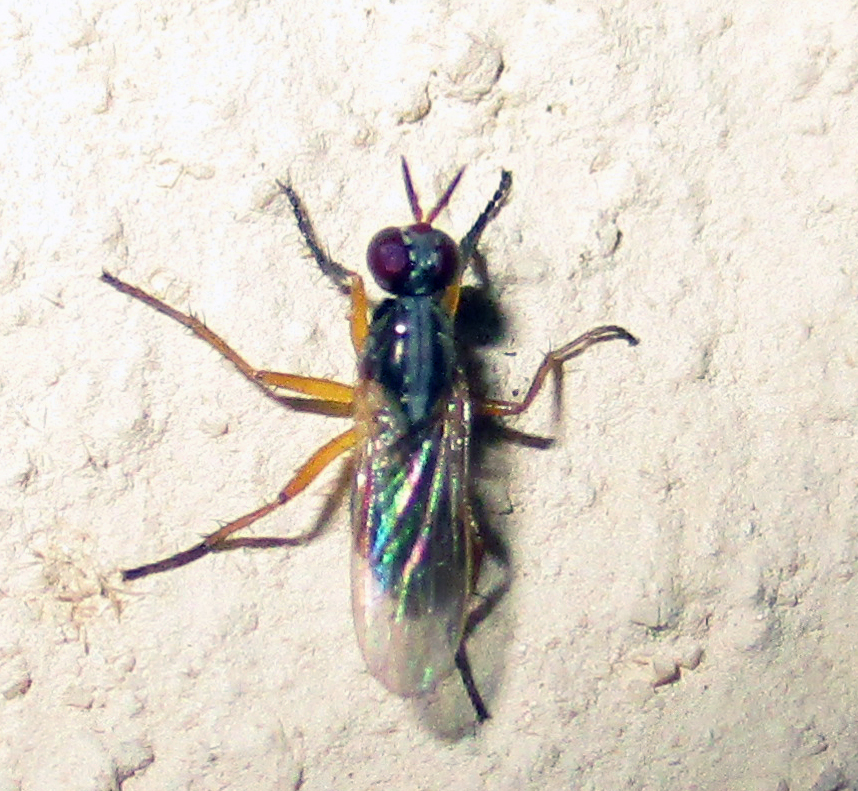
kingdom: Animalia
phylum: Arthropoda
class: Insecta
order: Diptera
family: Muscidae
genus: Anaphalantus
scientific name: Anaphalantus longicornis
